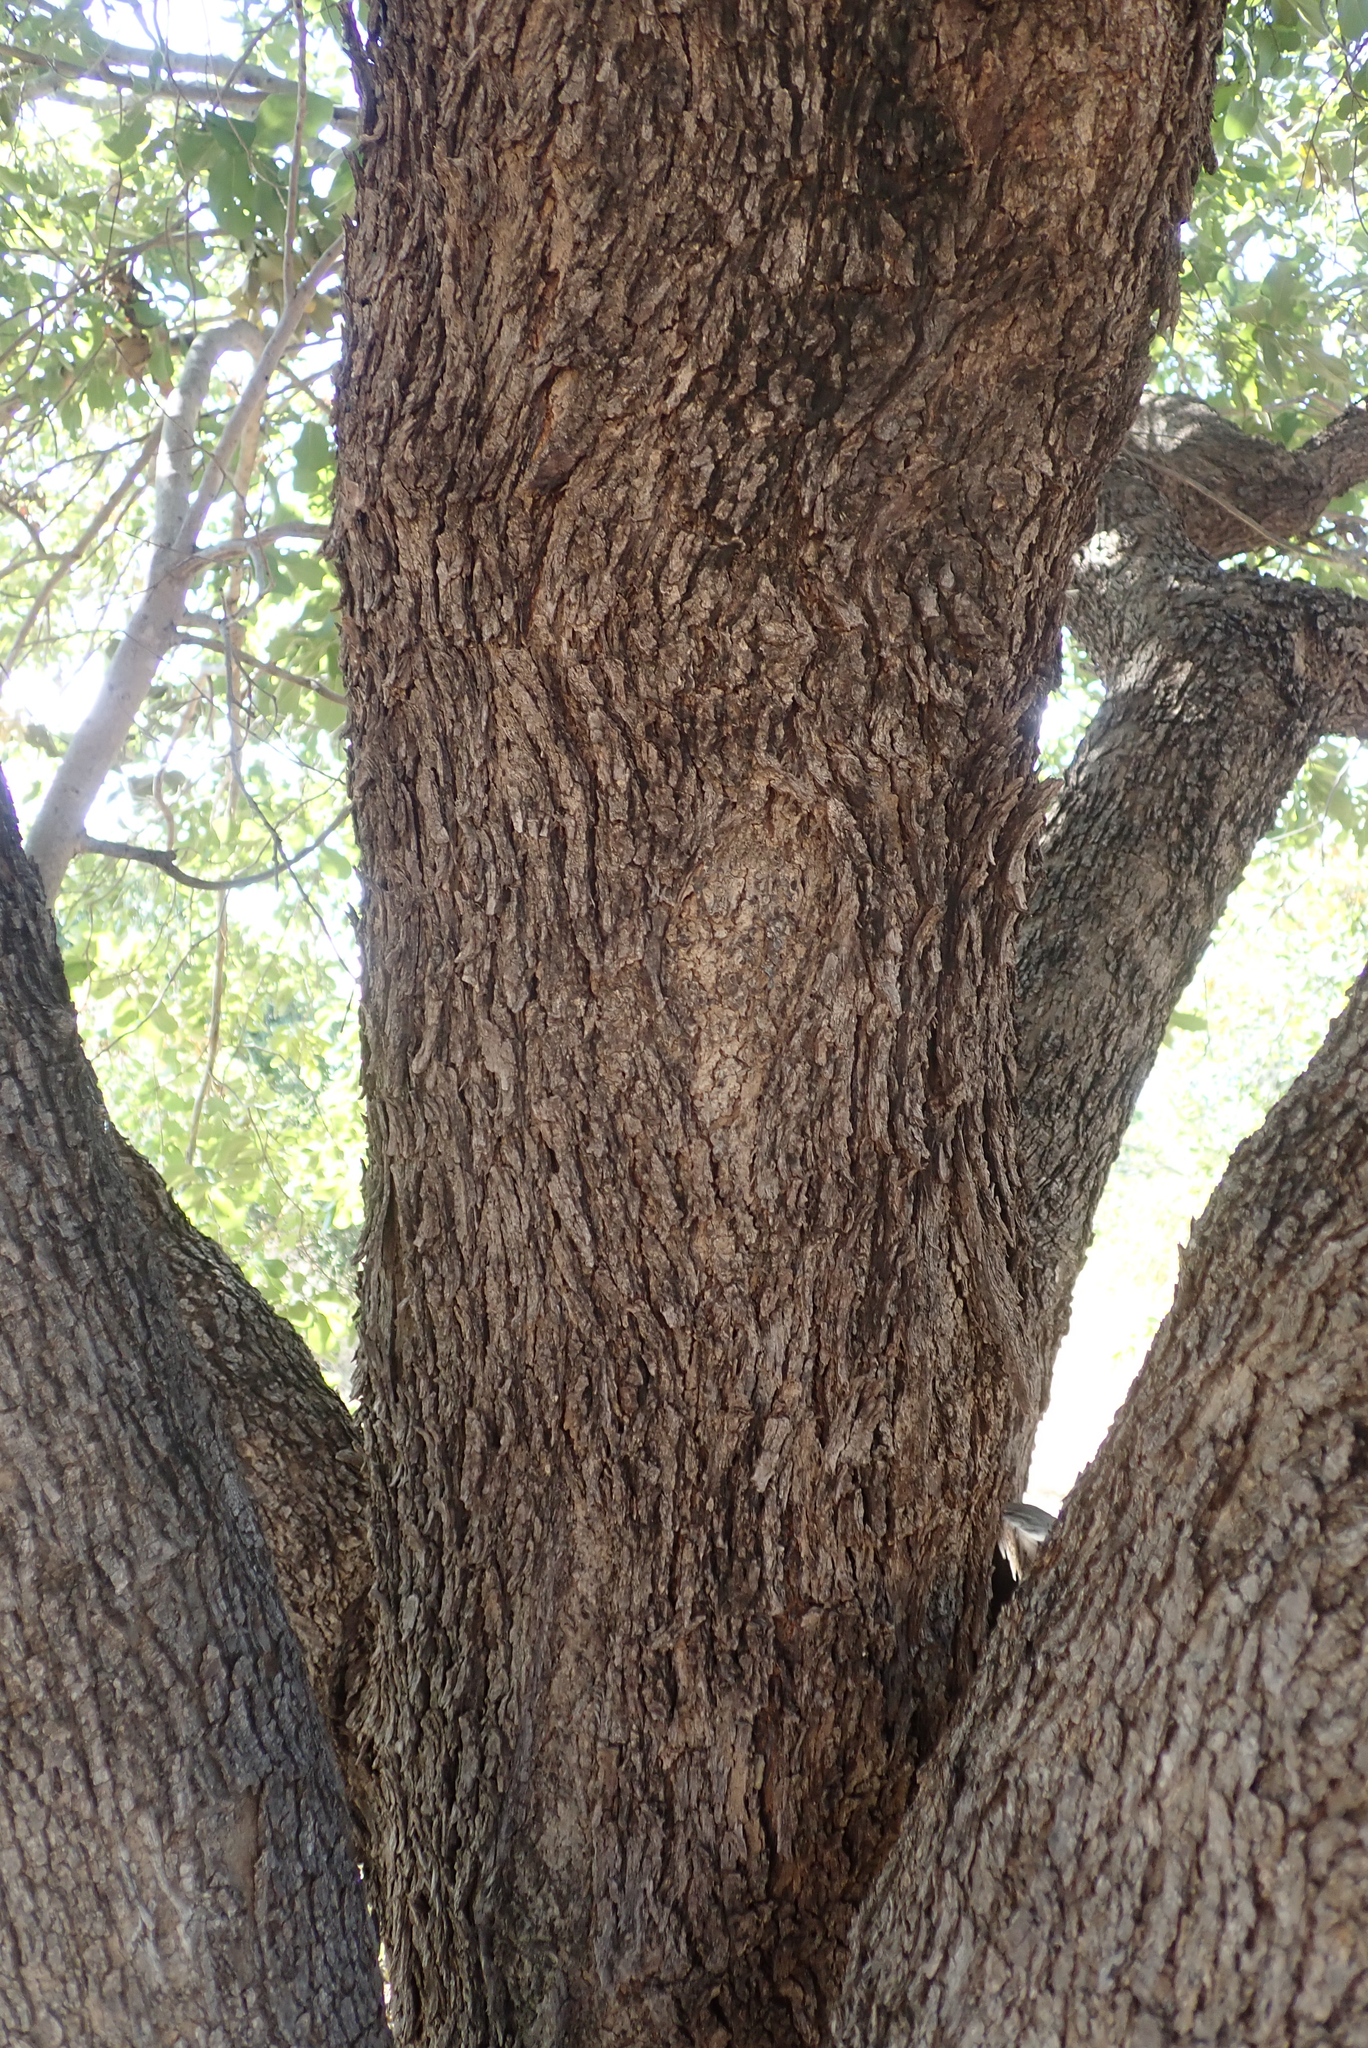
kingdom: Plantae
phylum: Tracheophyta
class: Magnoliopsida
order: Myrtales
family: Combretaceae
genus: Combretum
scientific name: Combretum zeyheri
